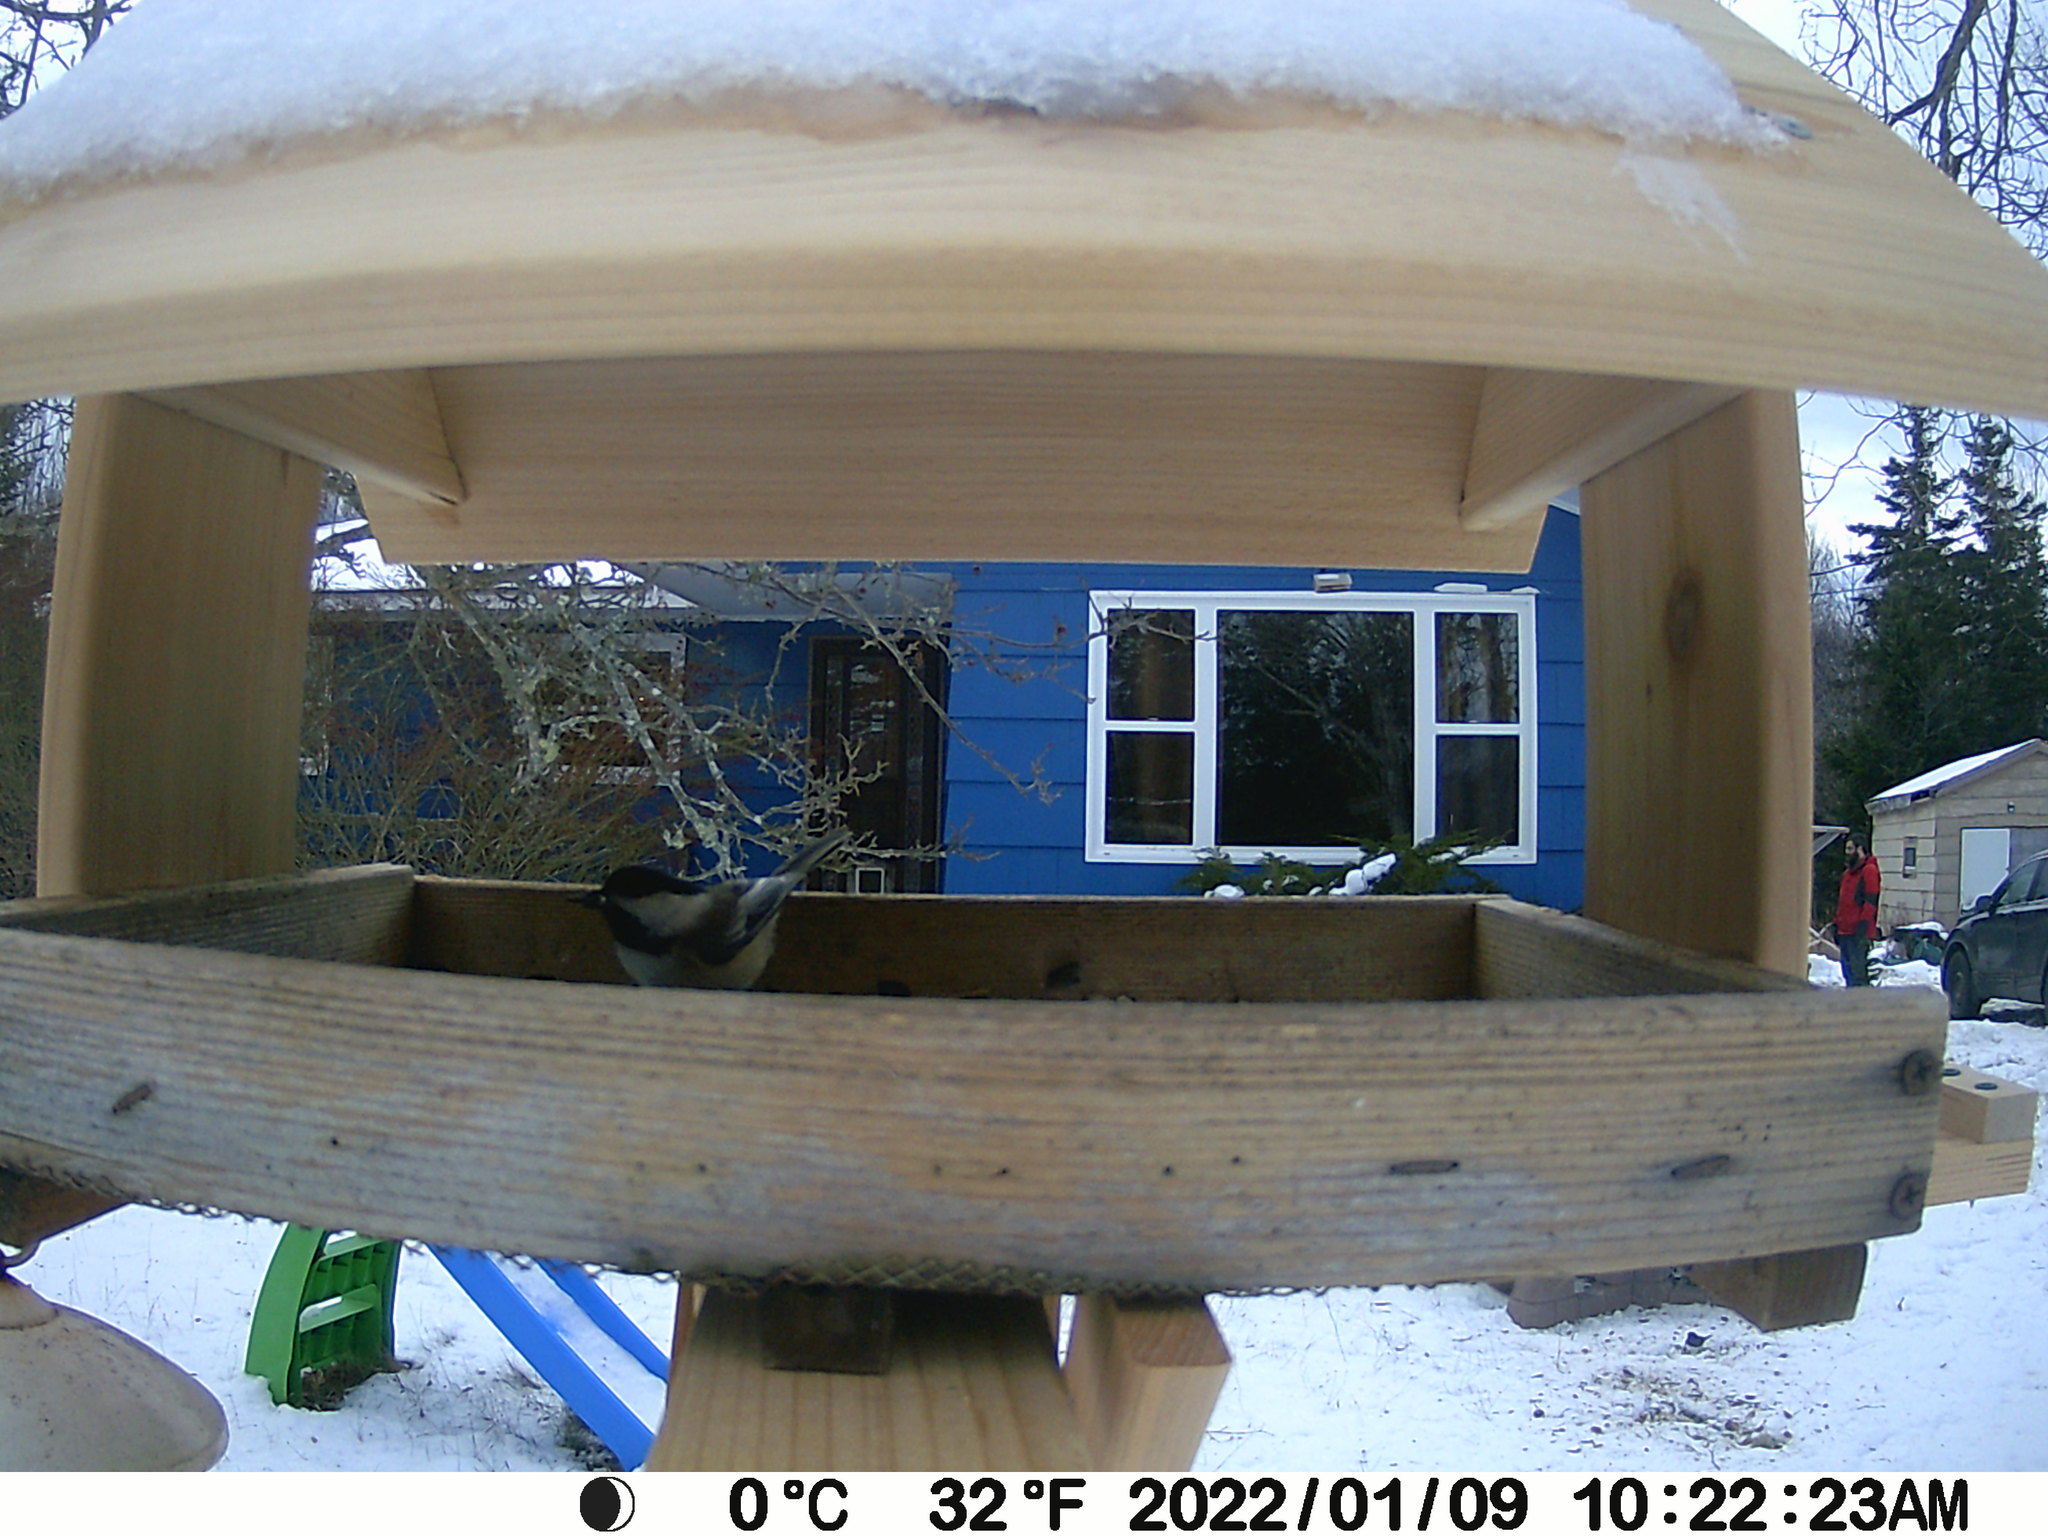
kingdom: Animalia
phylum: Chordata
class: Aves
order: Passeriformes
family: Paridae
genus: Poecile
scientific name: Poecile atricapillus
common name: Black-capped chickadee
